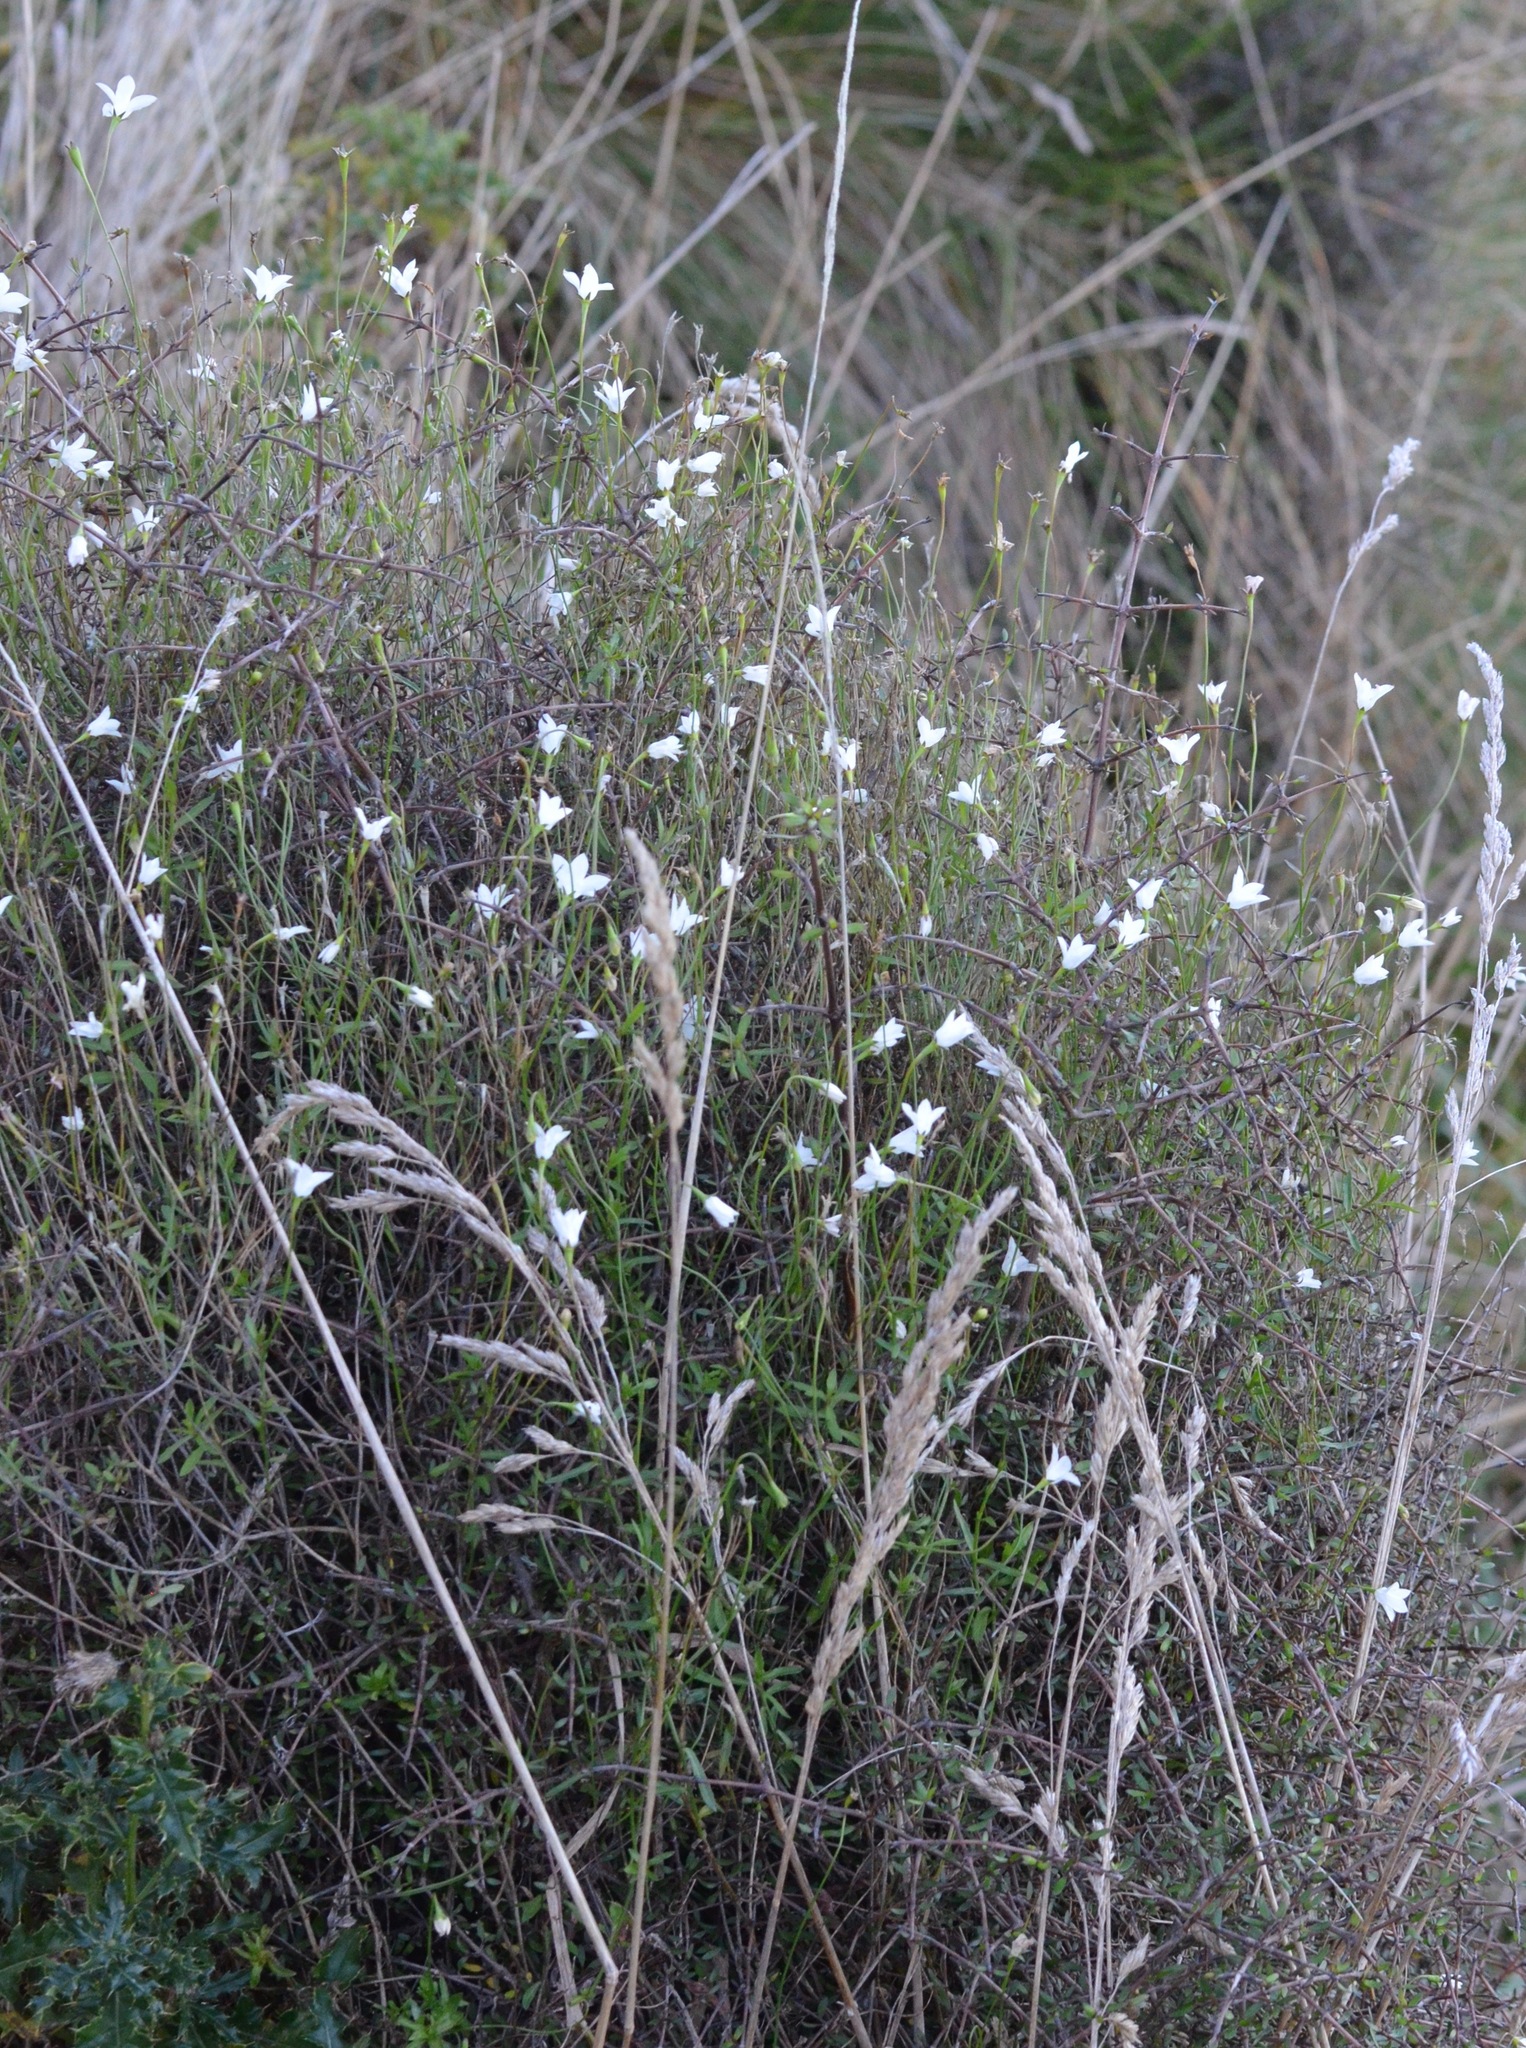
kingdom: Plantae
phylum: Tracheophyta
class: Magnoliopsida
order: Asterales
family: Campanulaceae
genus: Wahlenbergia
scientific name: Wahlenbergia albomarginata
